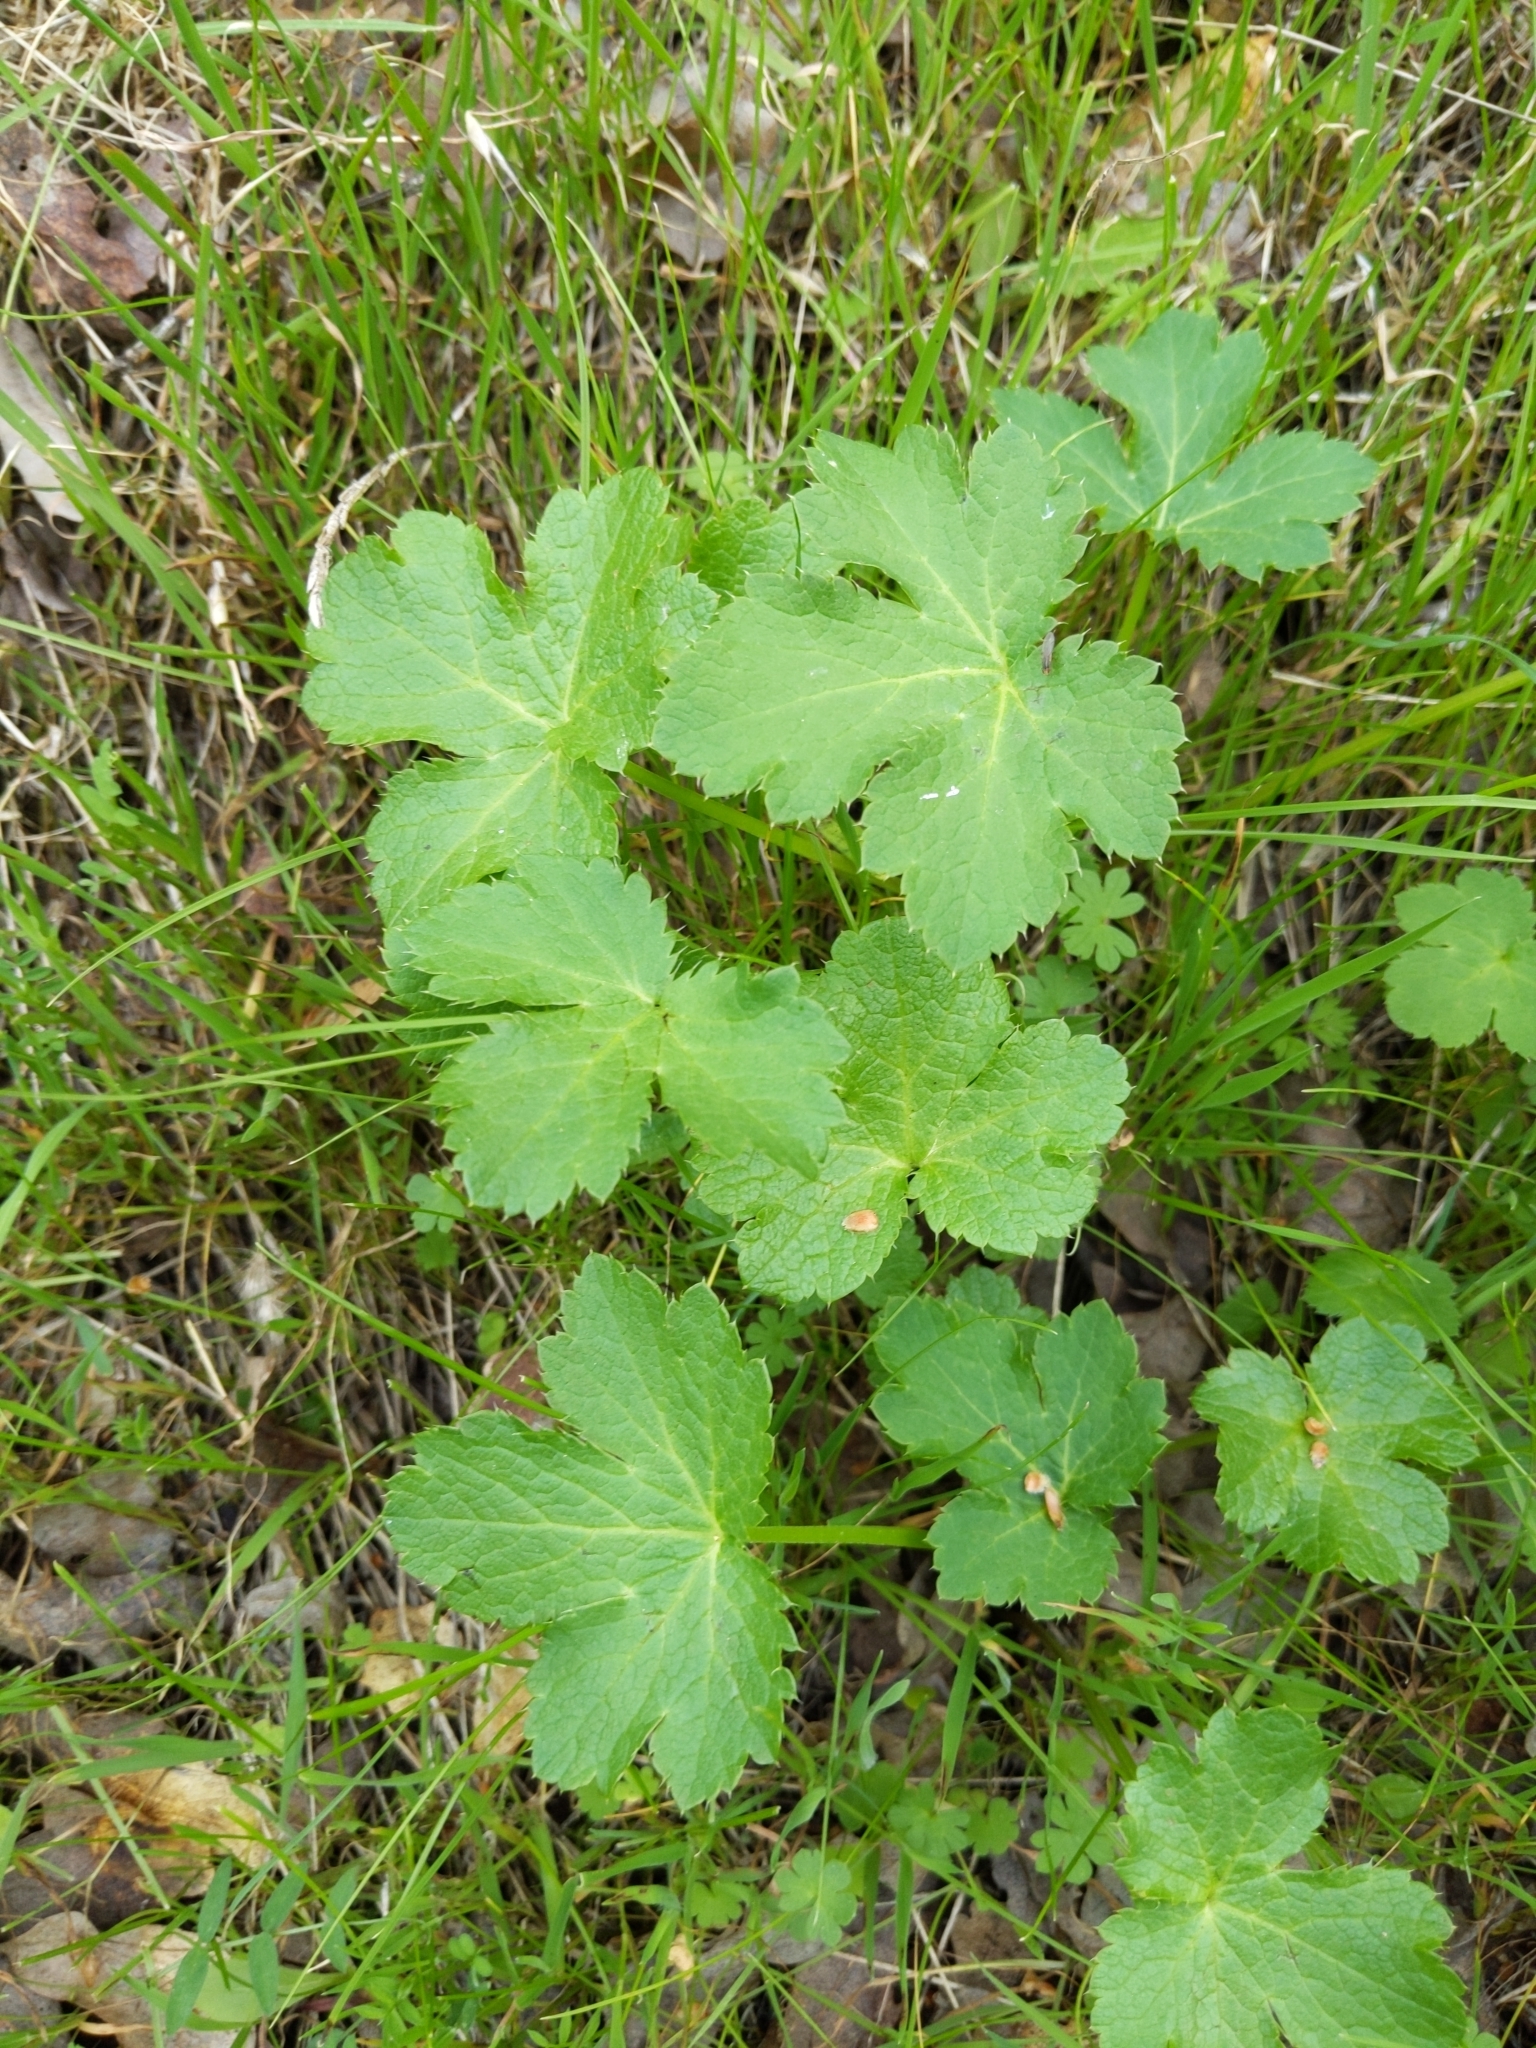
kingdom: Plantae
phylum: Tracheophyta
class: Magnoliopsida
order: Apiales
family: Apiaceae
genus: Sanicula
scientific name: Sanicula crassicaulis
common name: Western snakeroot
